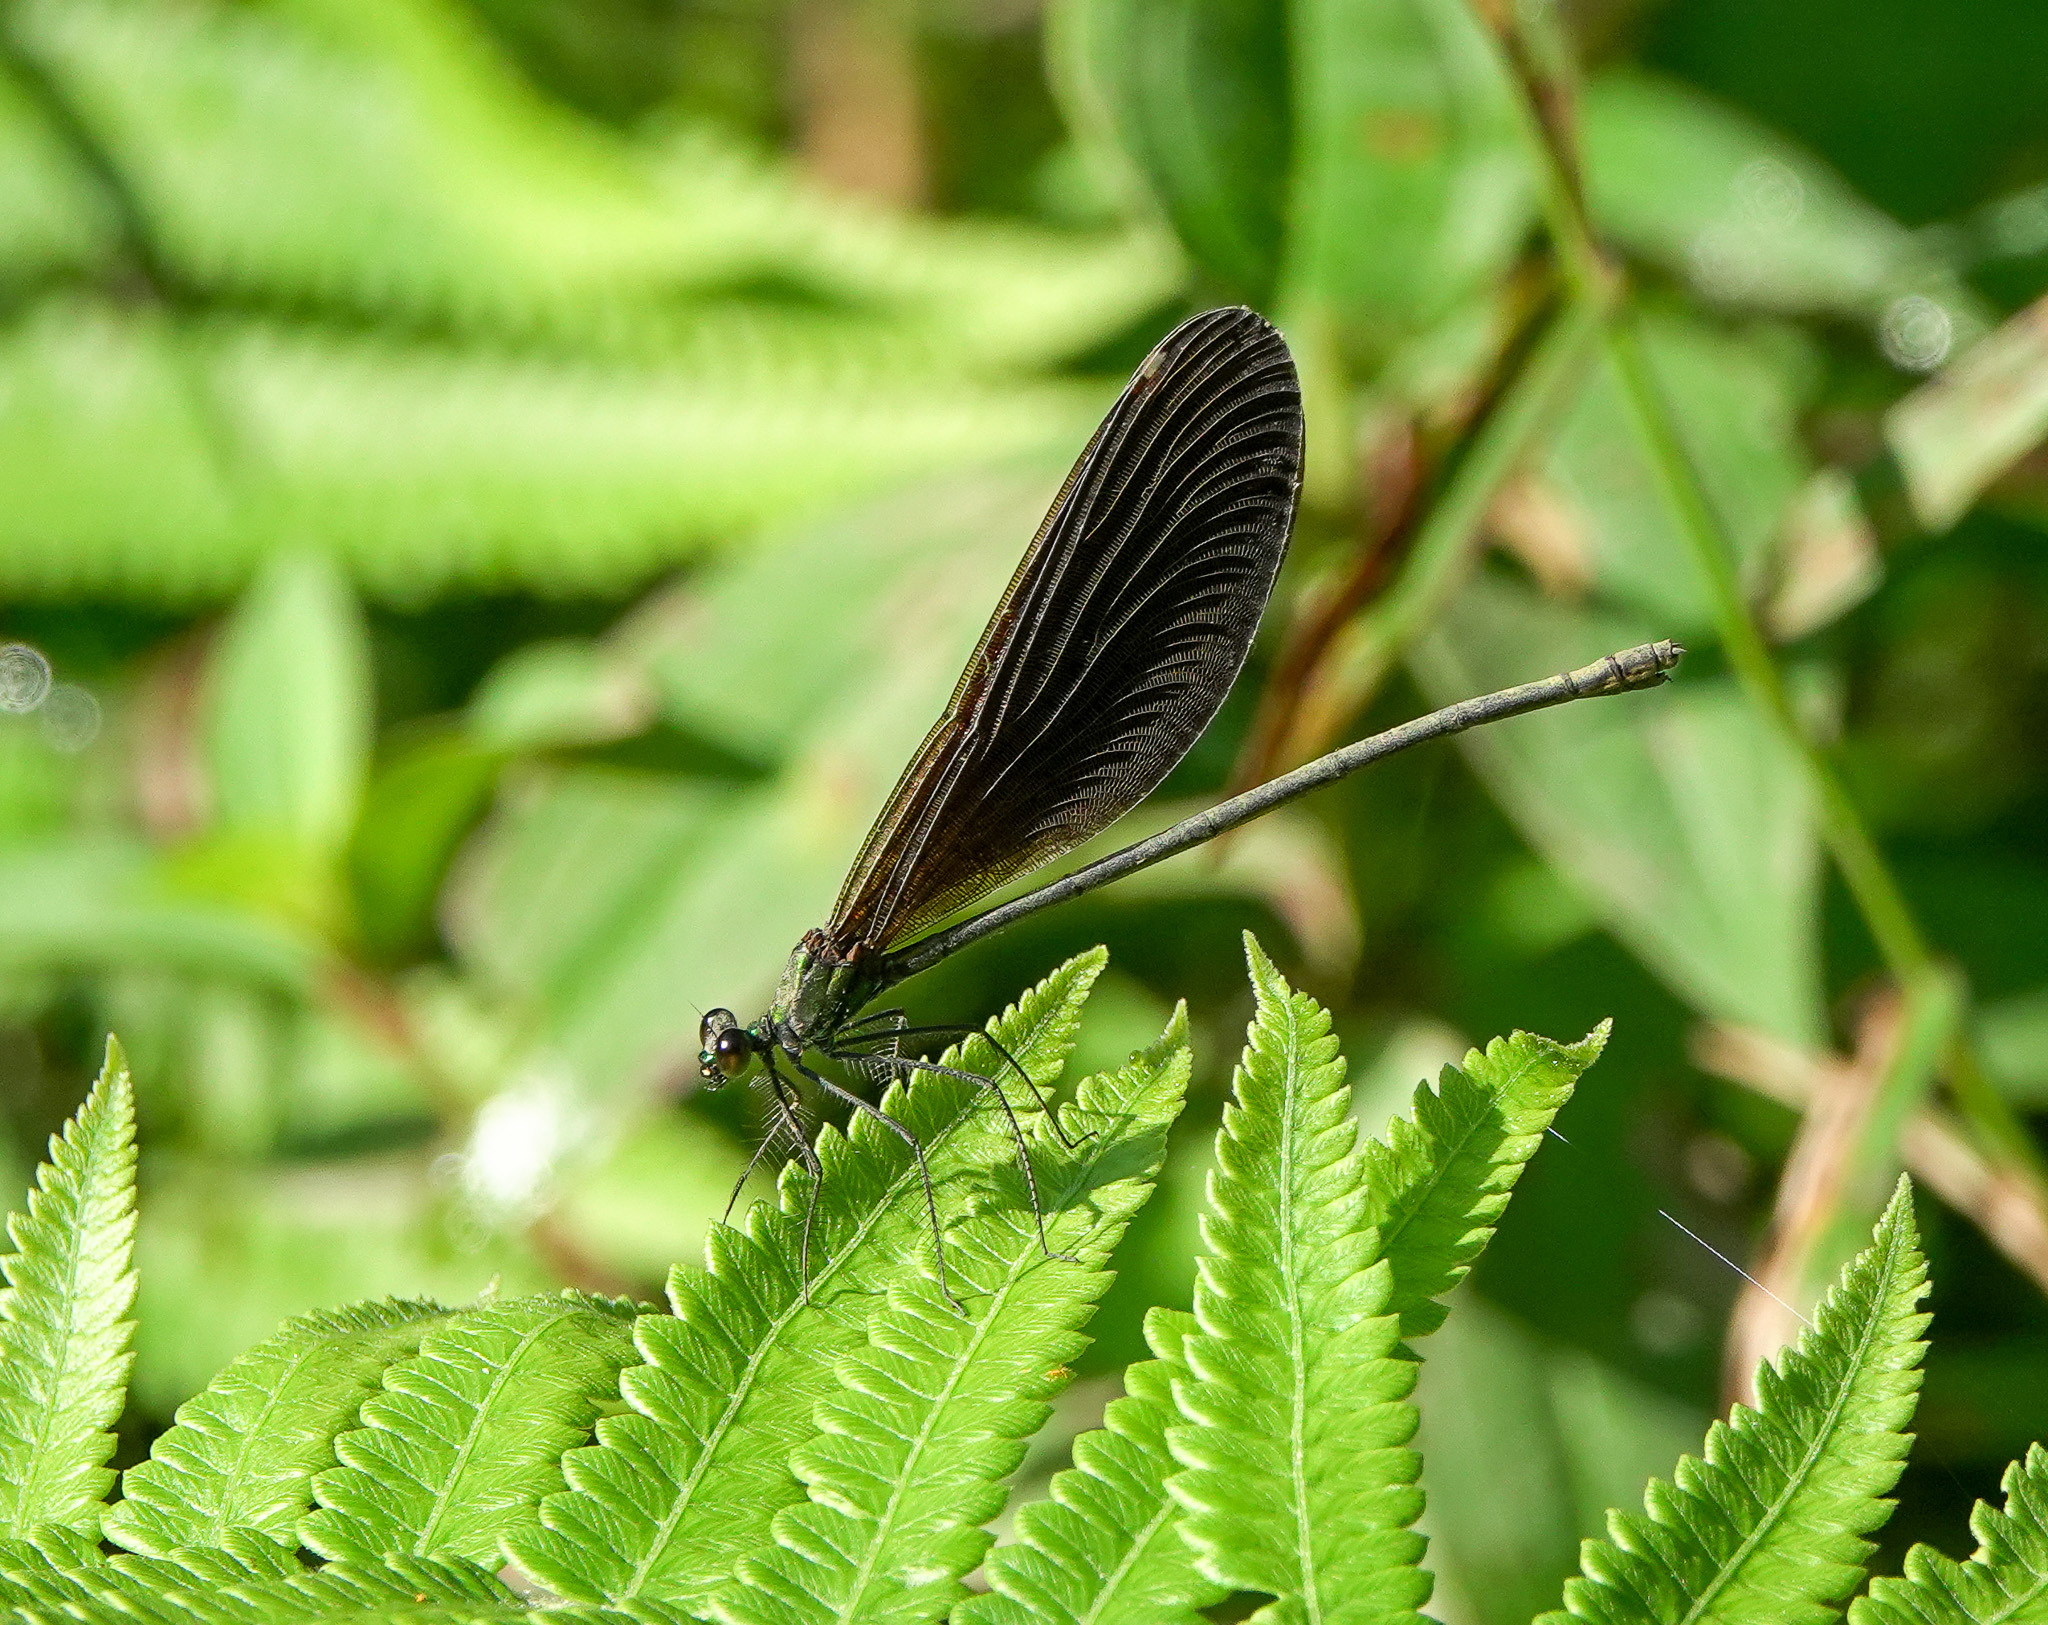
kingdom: Animalia
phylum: Arthropoda
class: Insecta
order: Odonata
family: Calopterygidae
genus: Matrona
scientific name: Matrona nigripectus
